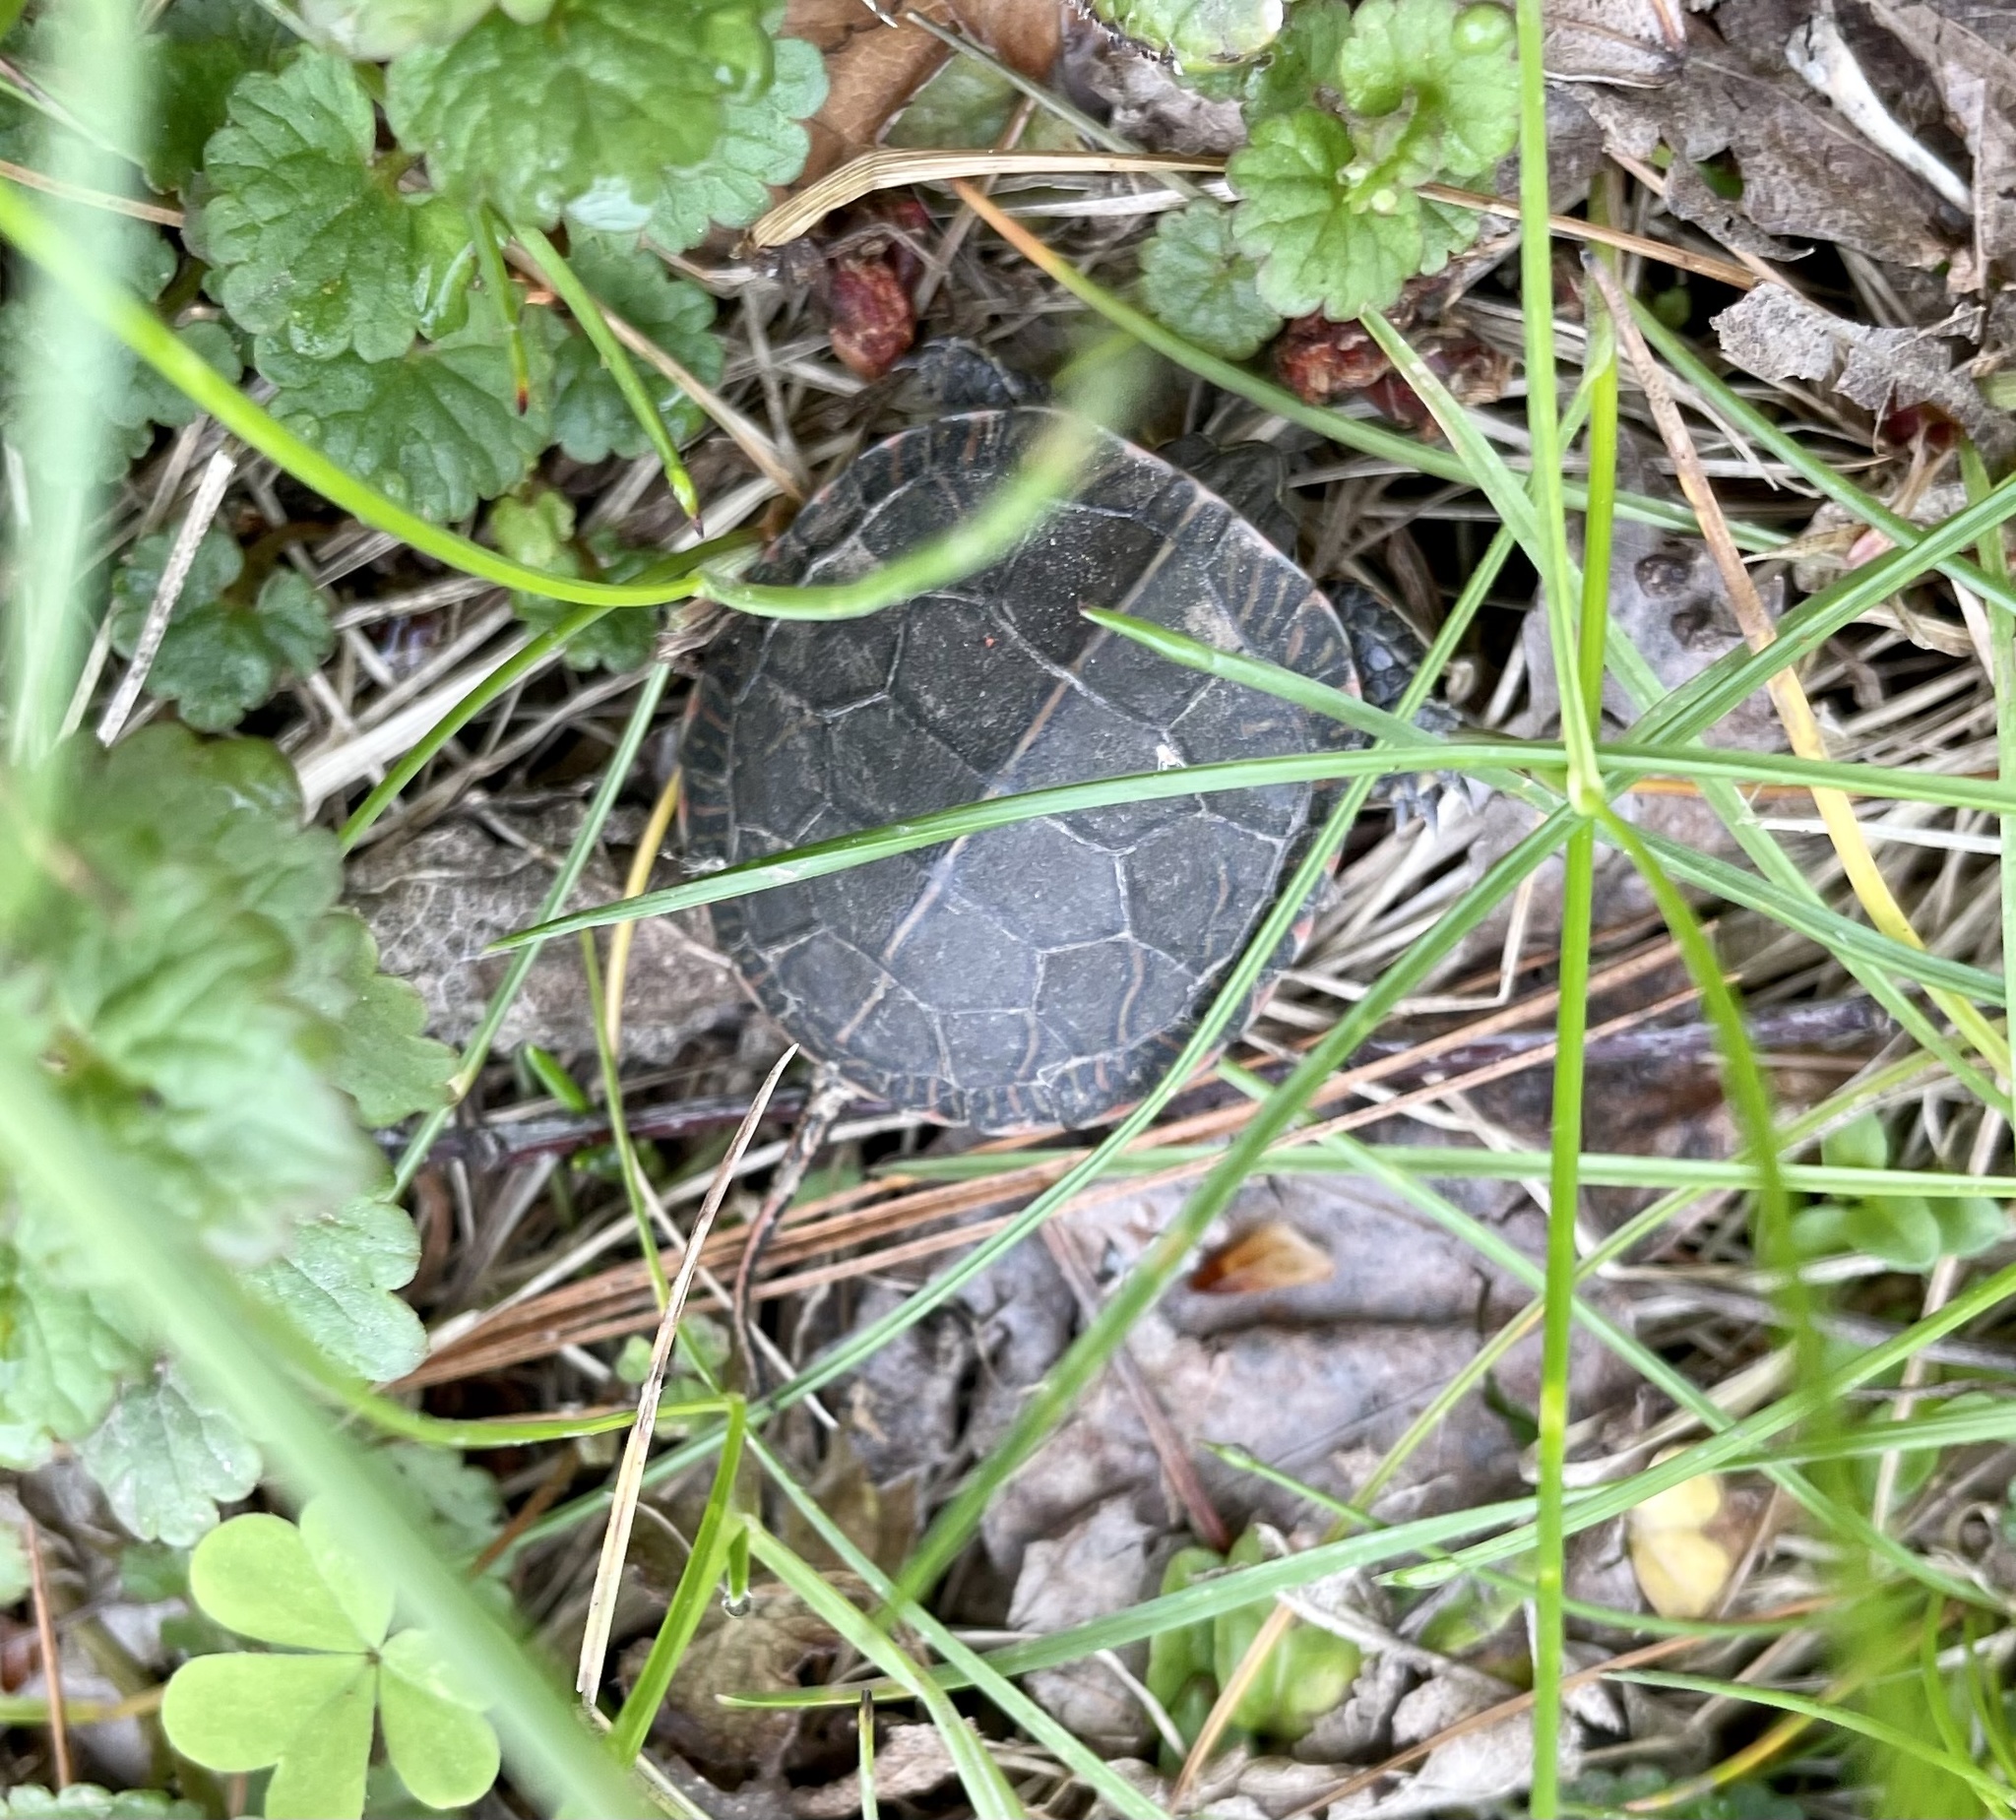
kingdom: Animalia
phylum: Chordata
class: Testudines
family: Emydidae
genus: Chrysemys
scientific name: Chrysemys picta
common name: Painted turtle
